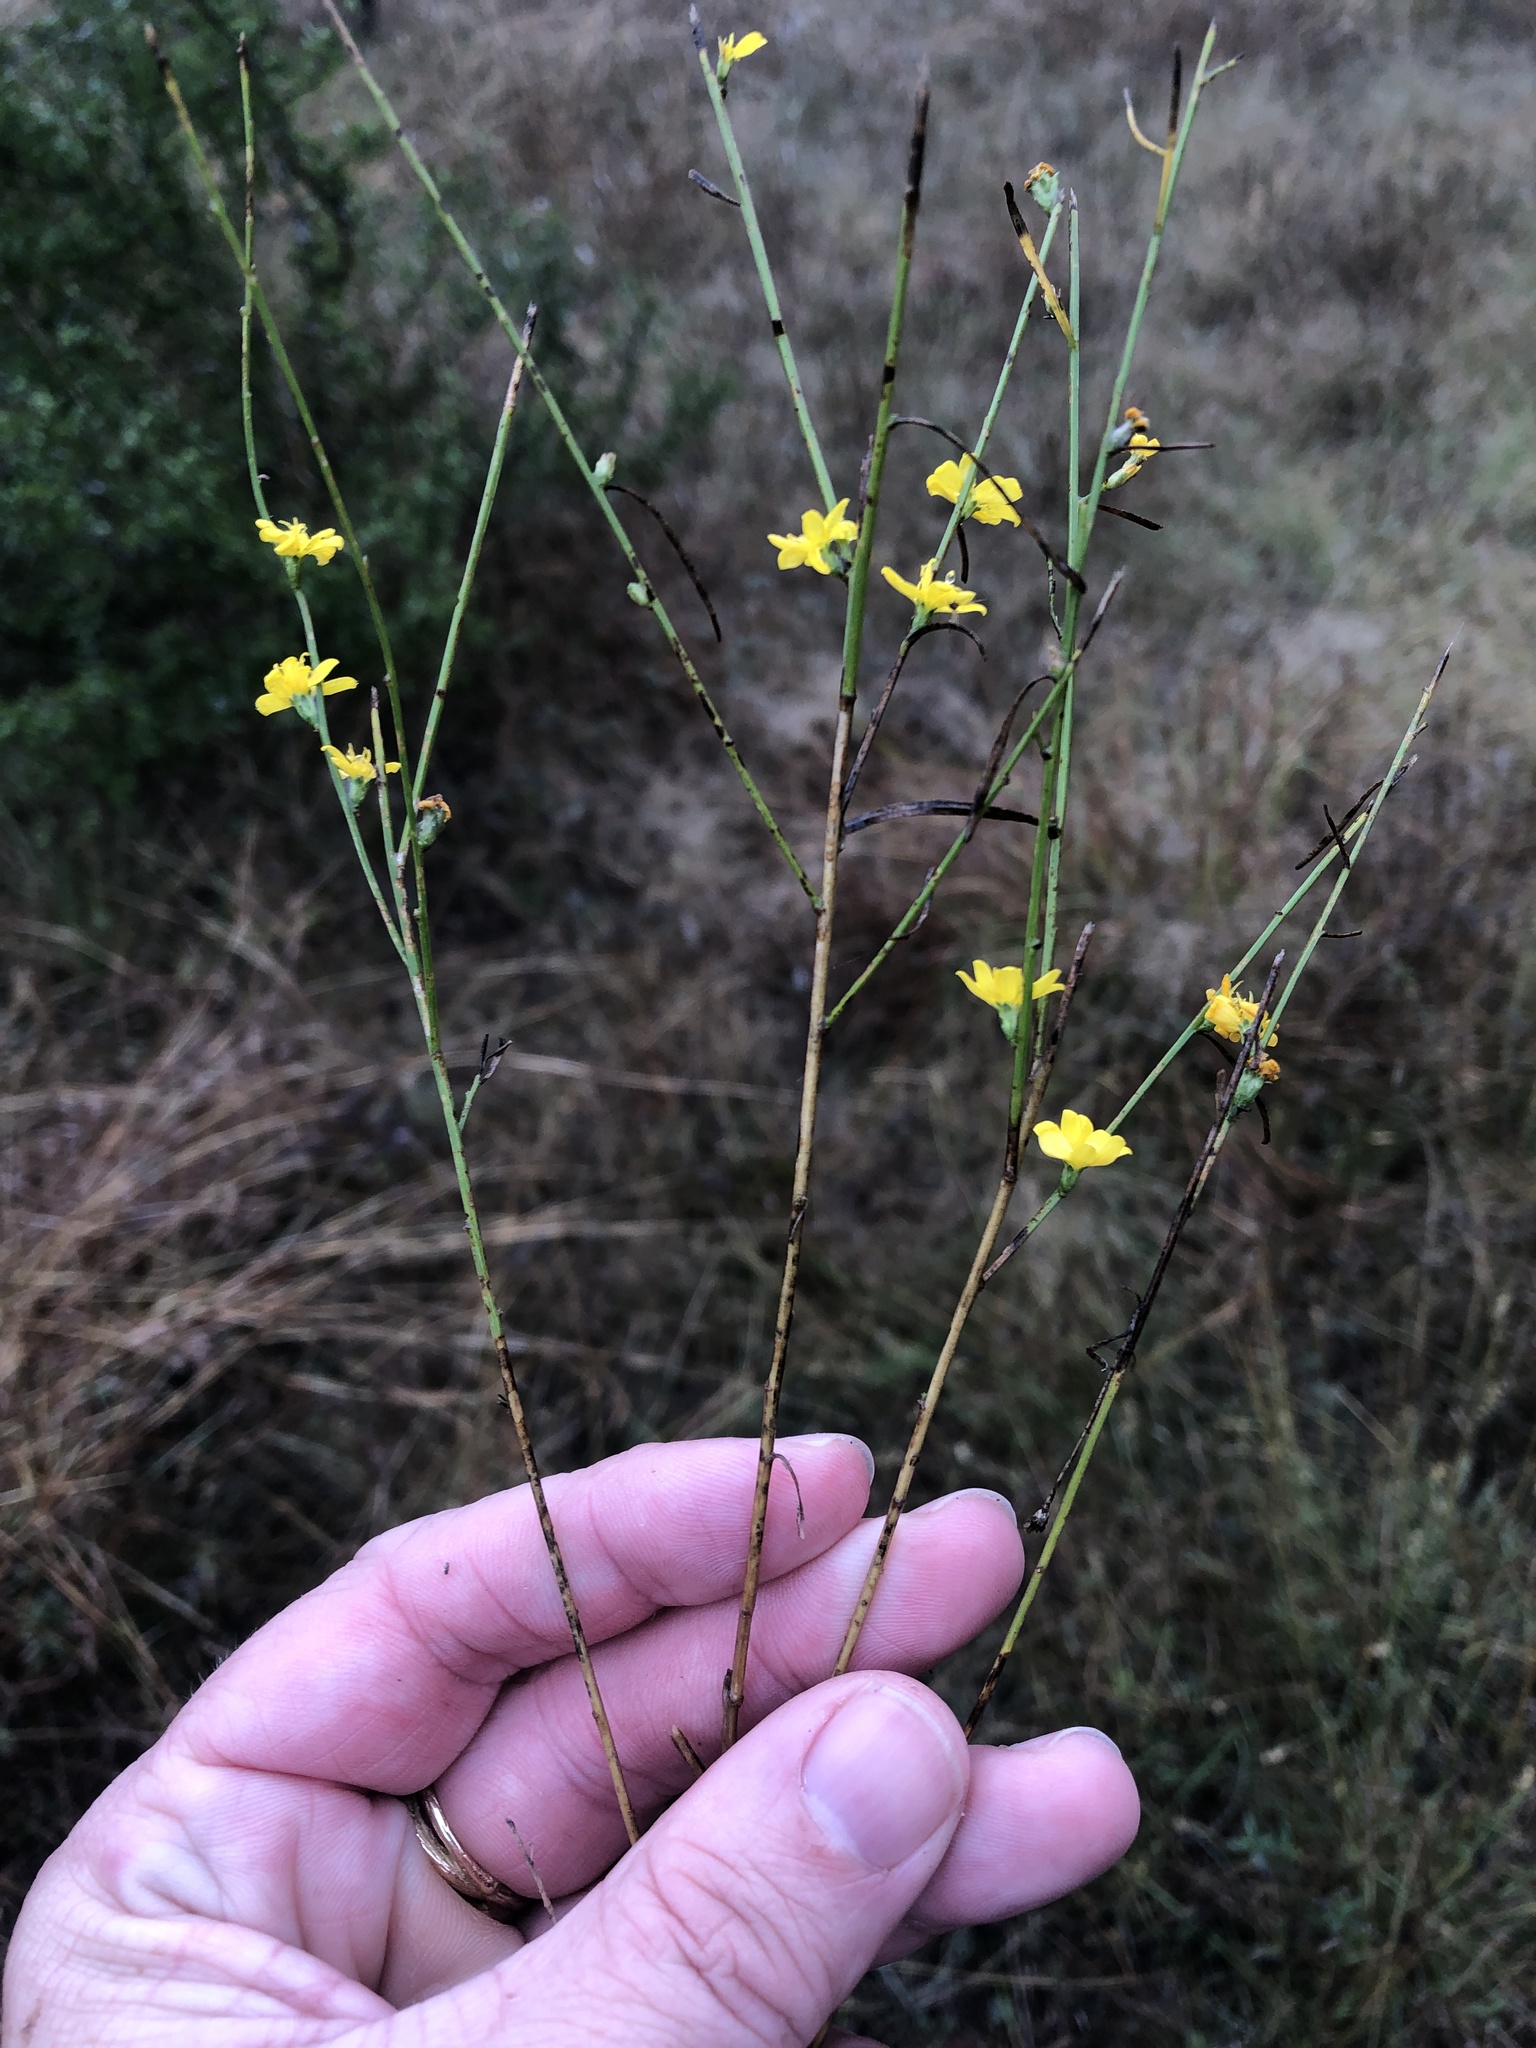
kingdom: Plantae
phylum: Tracheophyta
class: Magnoliopsida
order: Asterales
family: Asteraceae
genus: Gutierrezia
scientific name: Gutierrezia texana
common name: Texas snakeweed
